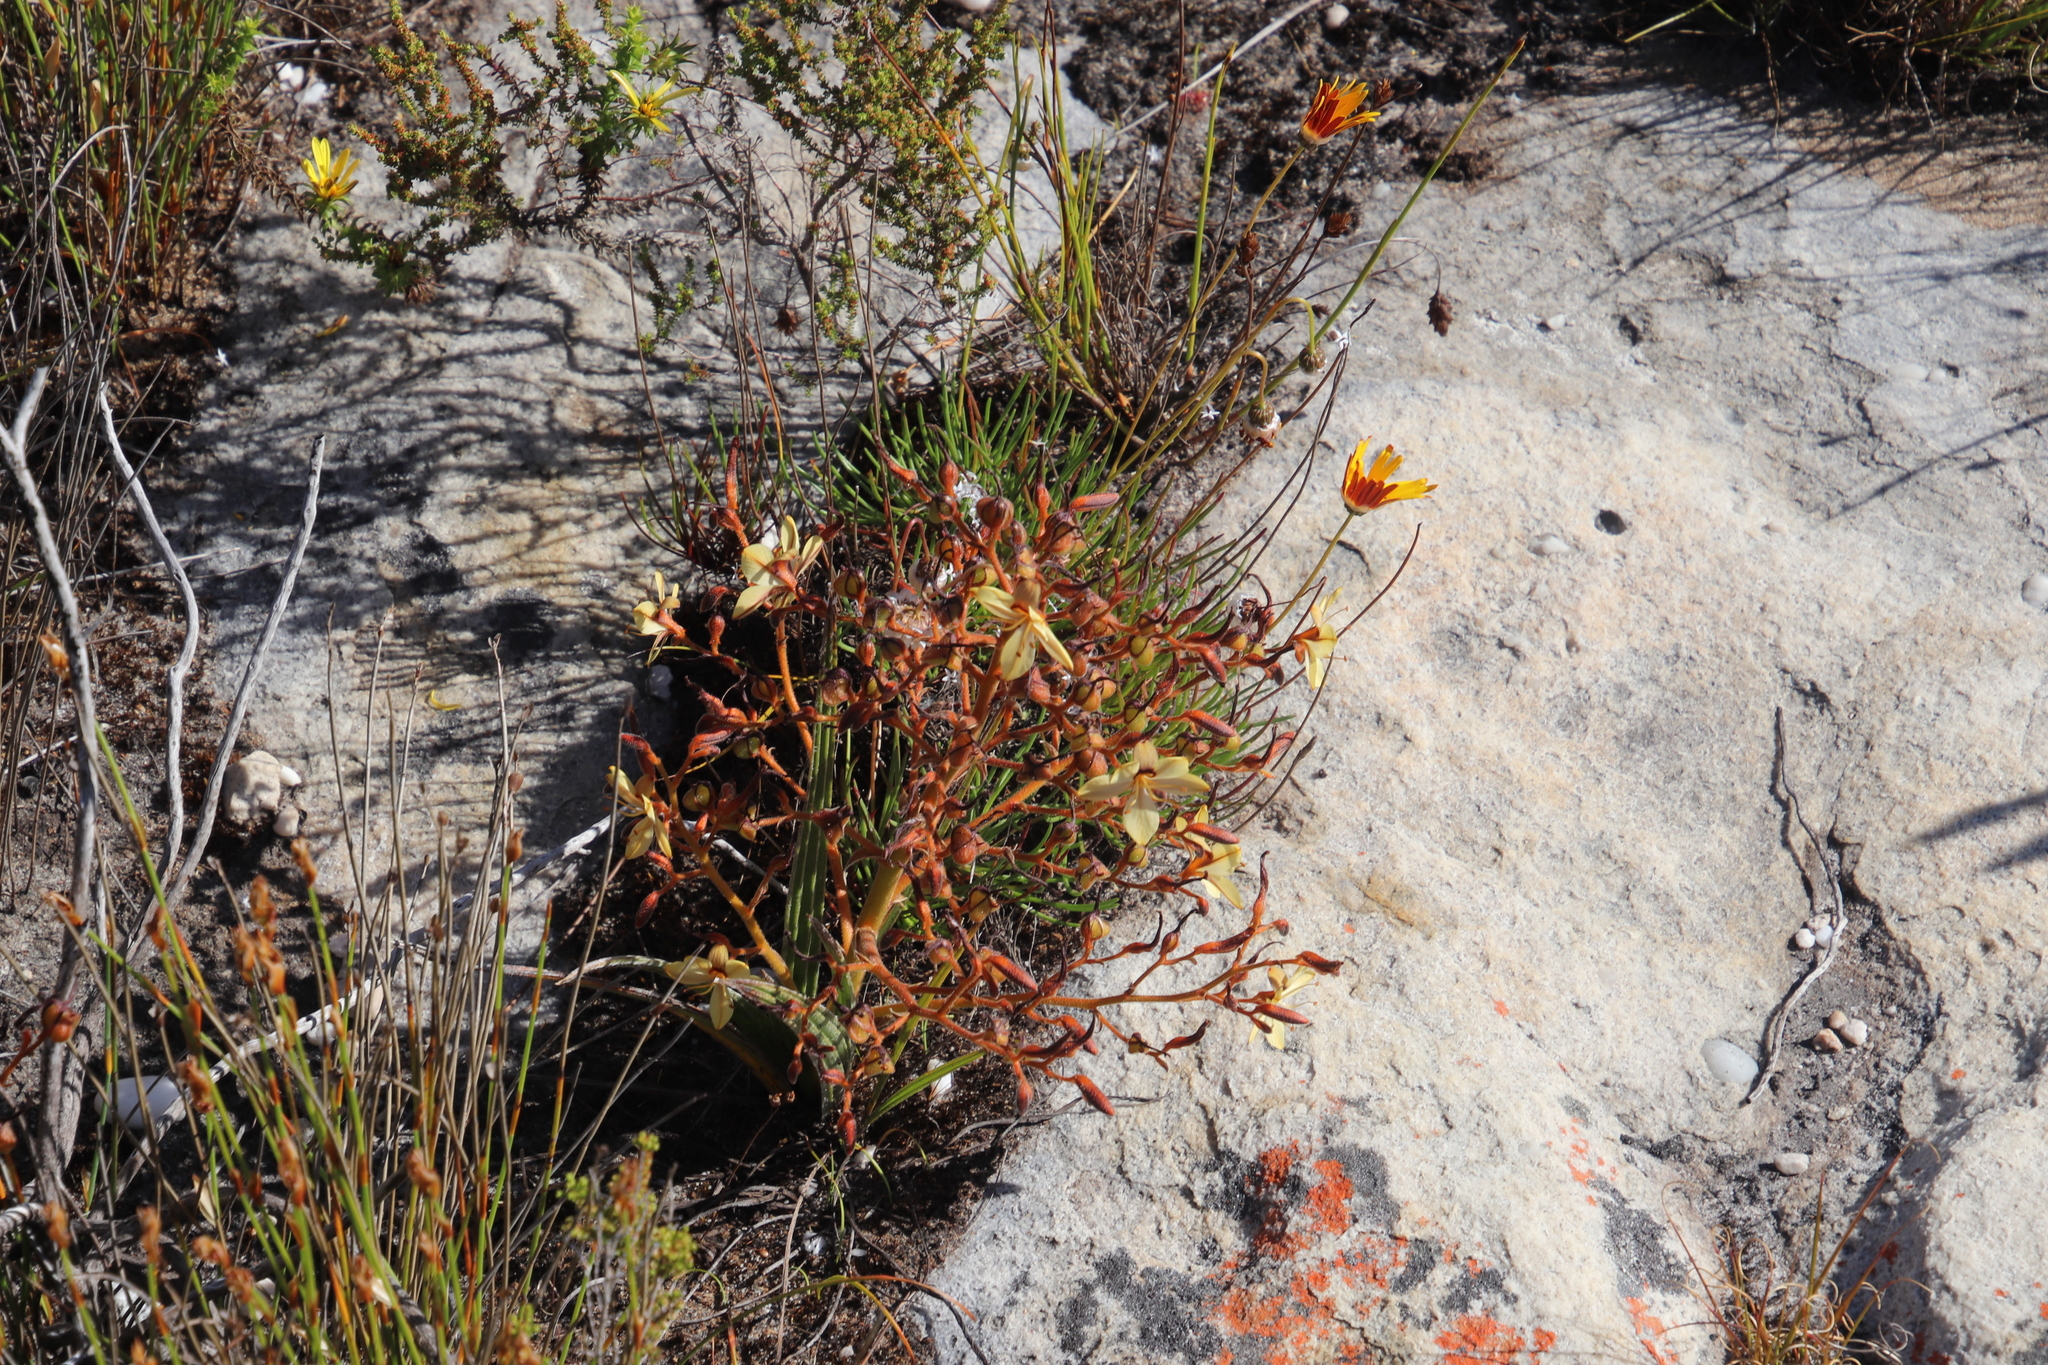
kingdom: Plantae
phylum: Tracheophyta
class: Liliopsida
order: Commelinales
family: Haemodoraceae
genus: Wachendorfia
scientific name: Wachendorfia paniculata
